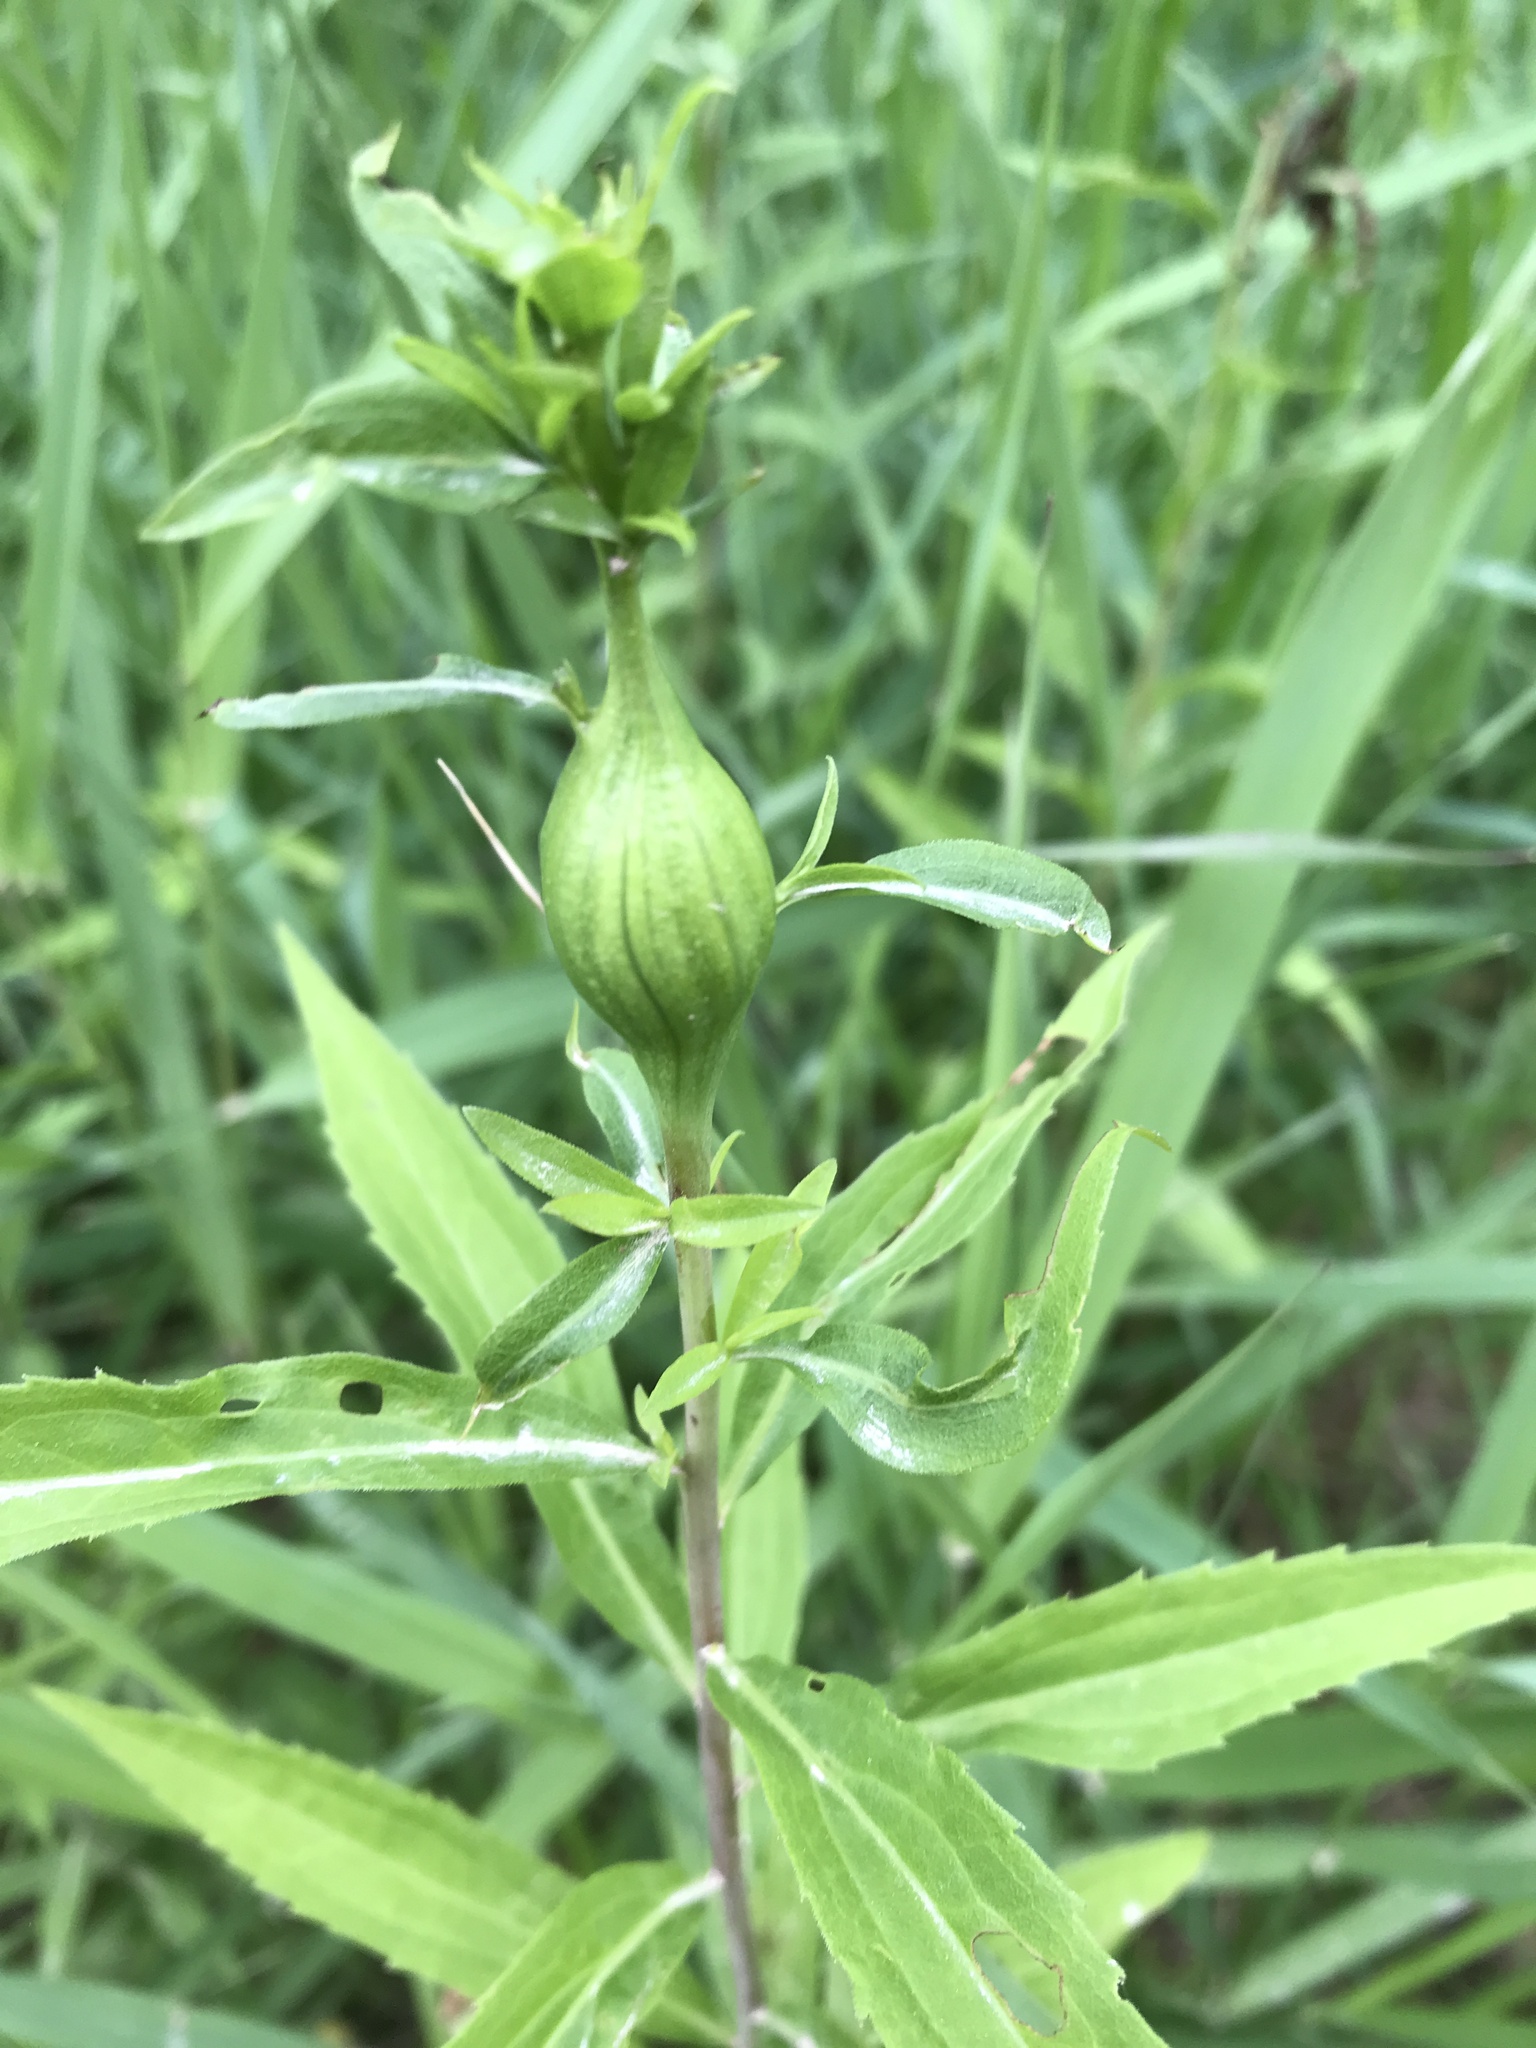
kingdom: Animalia
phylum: Arthropoda
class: Insecta
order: Diptera
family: Tephritidae
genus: Eurosta
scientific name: Eurosta solidaginis
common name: Goldenrod gall fly
